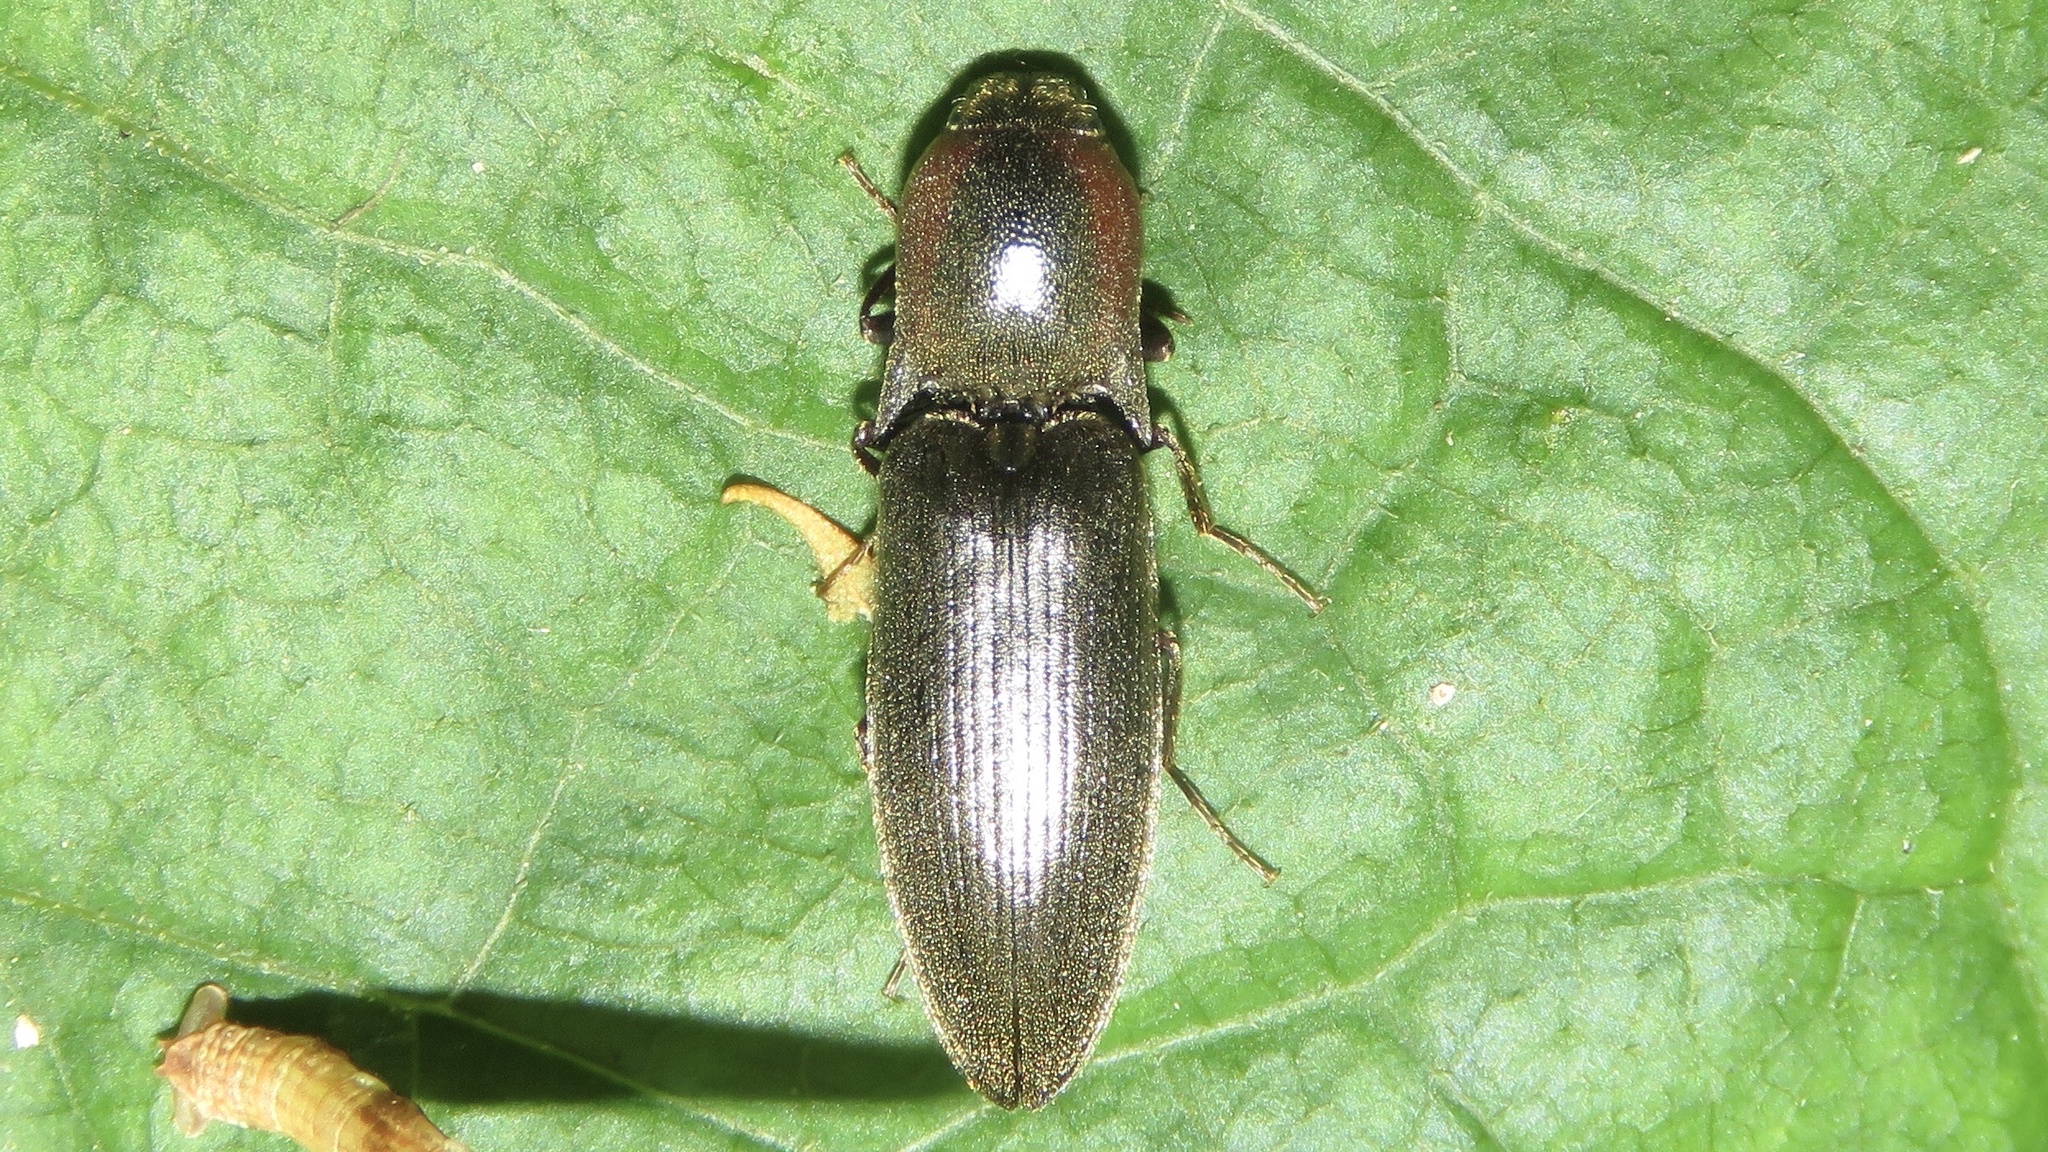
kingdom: Animalia
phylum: Arthropoda
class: Insecta
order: Coleoptera
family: Elateridae
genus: Agriotes
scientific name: Agriotes fucosus
